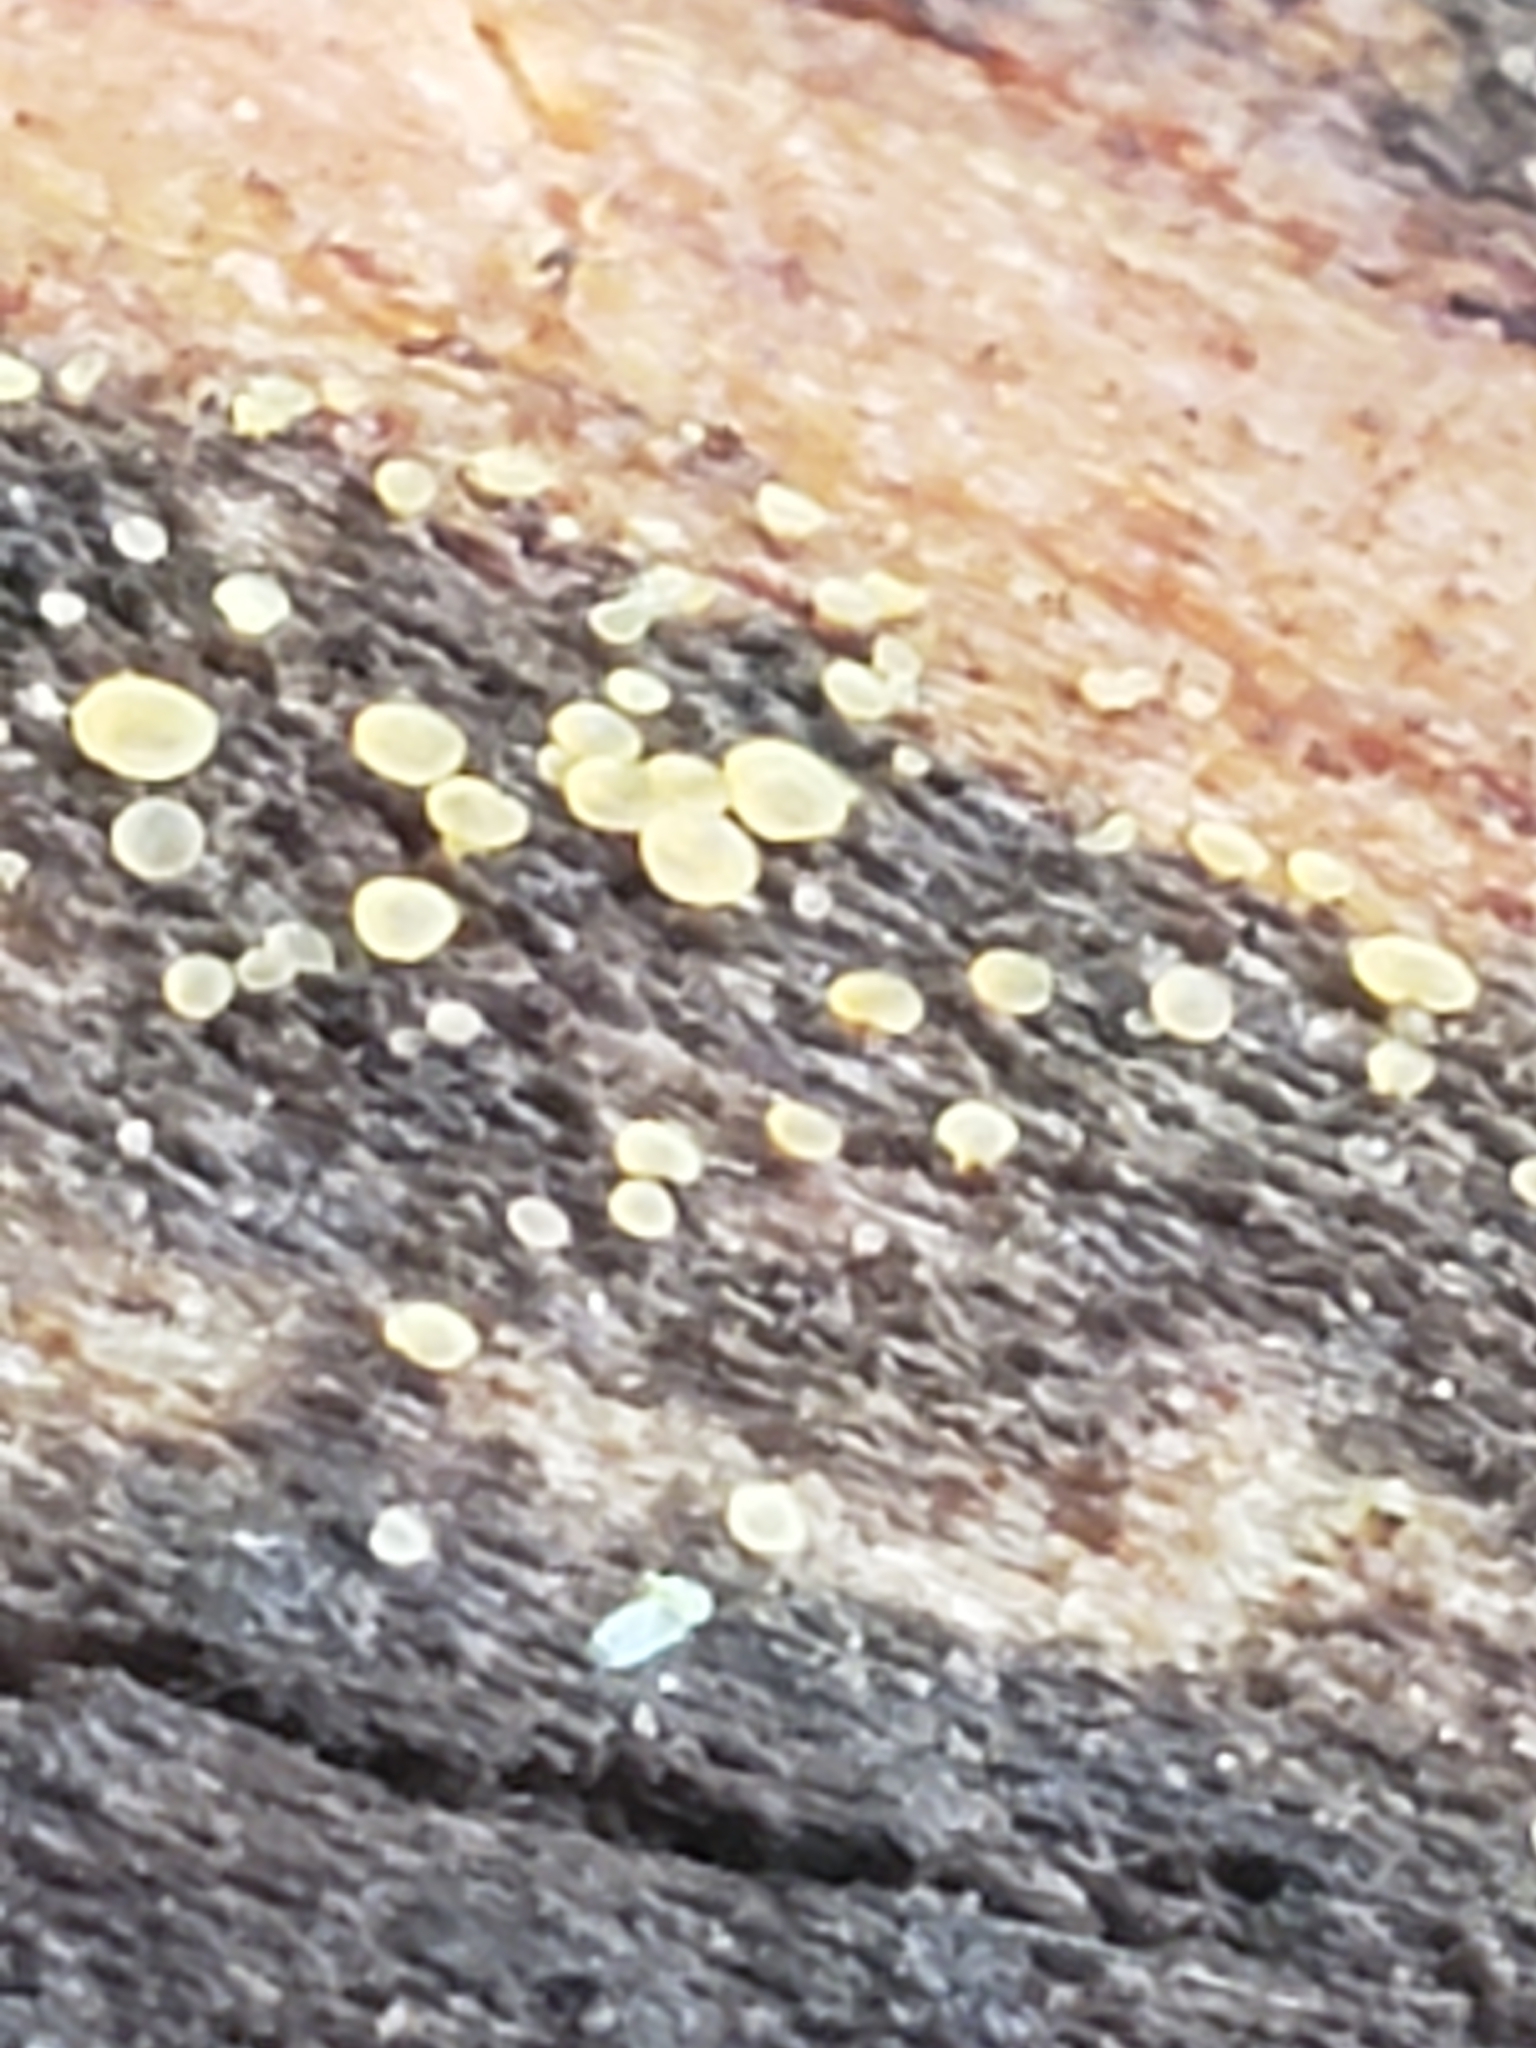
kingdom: Fungi
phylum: Ascomycota
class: Orbiliomycetes
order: Orbiliales
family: Orbiliaceae
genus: Orbilia
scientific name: Orbilia
